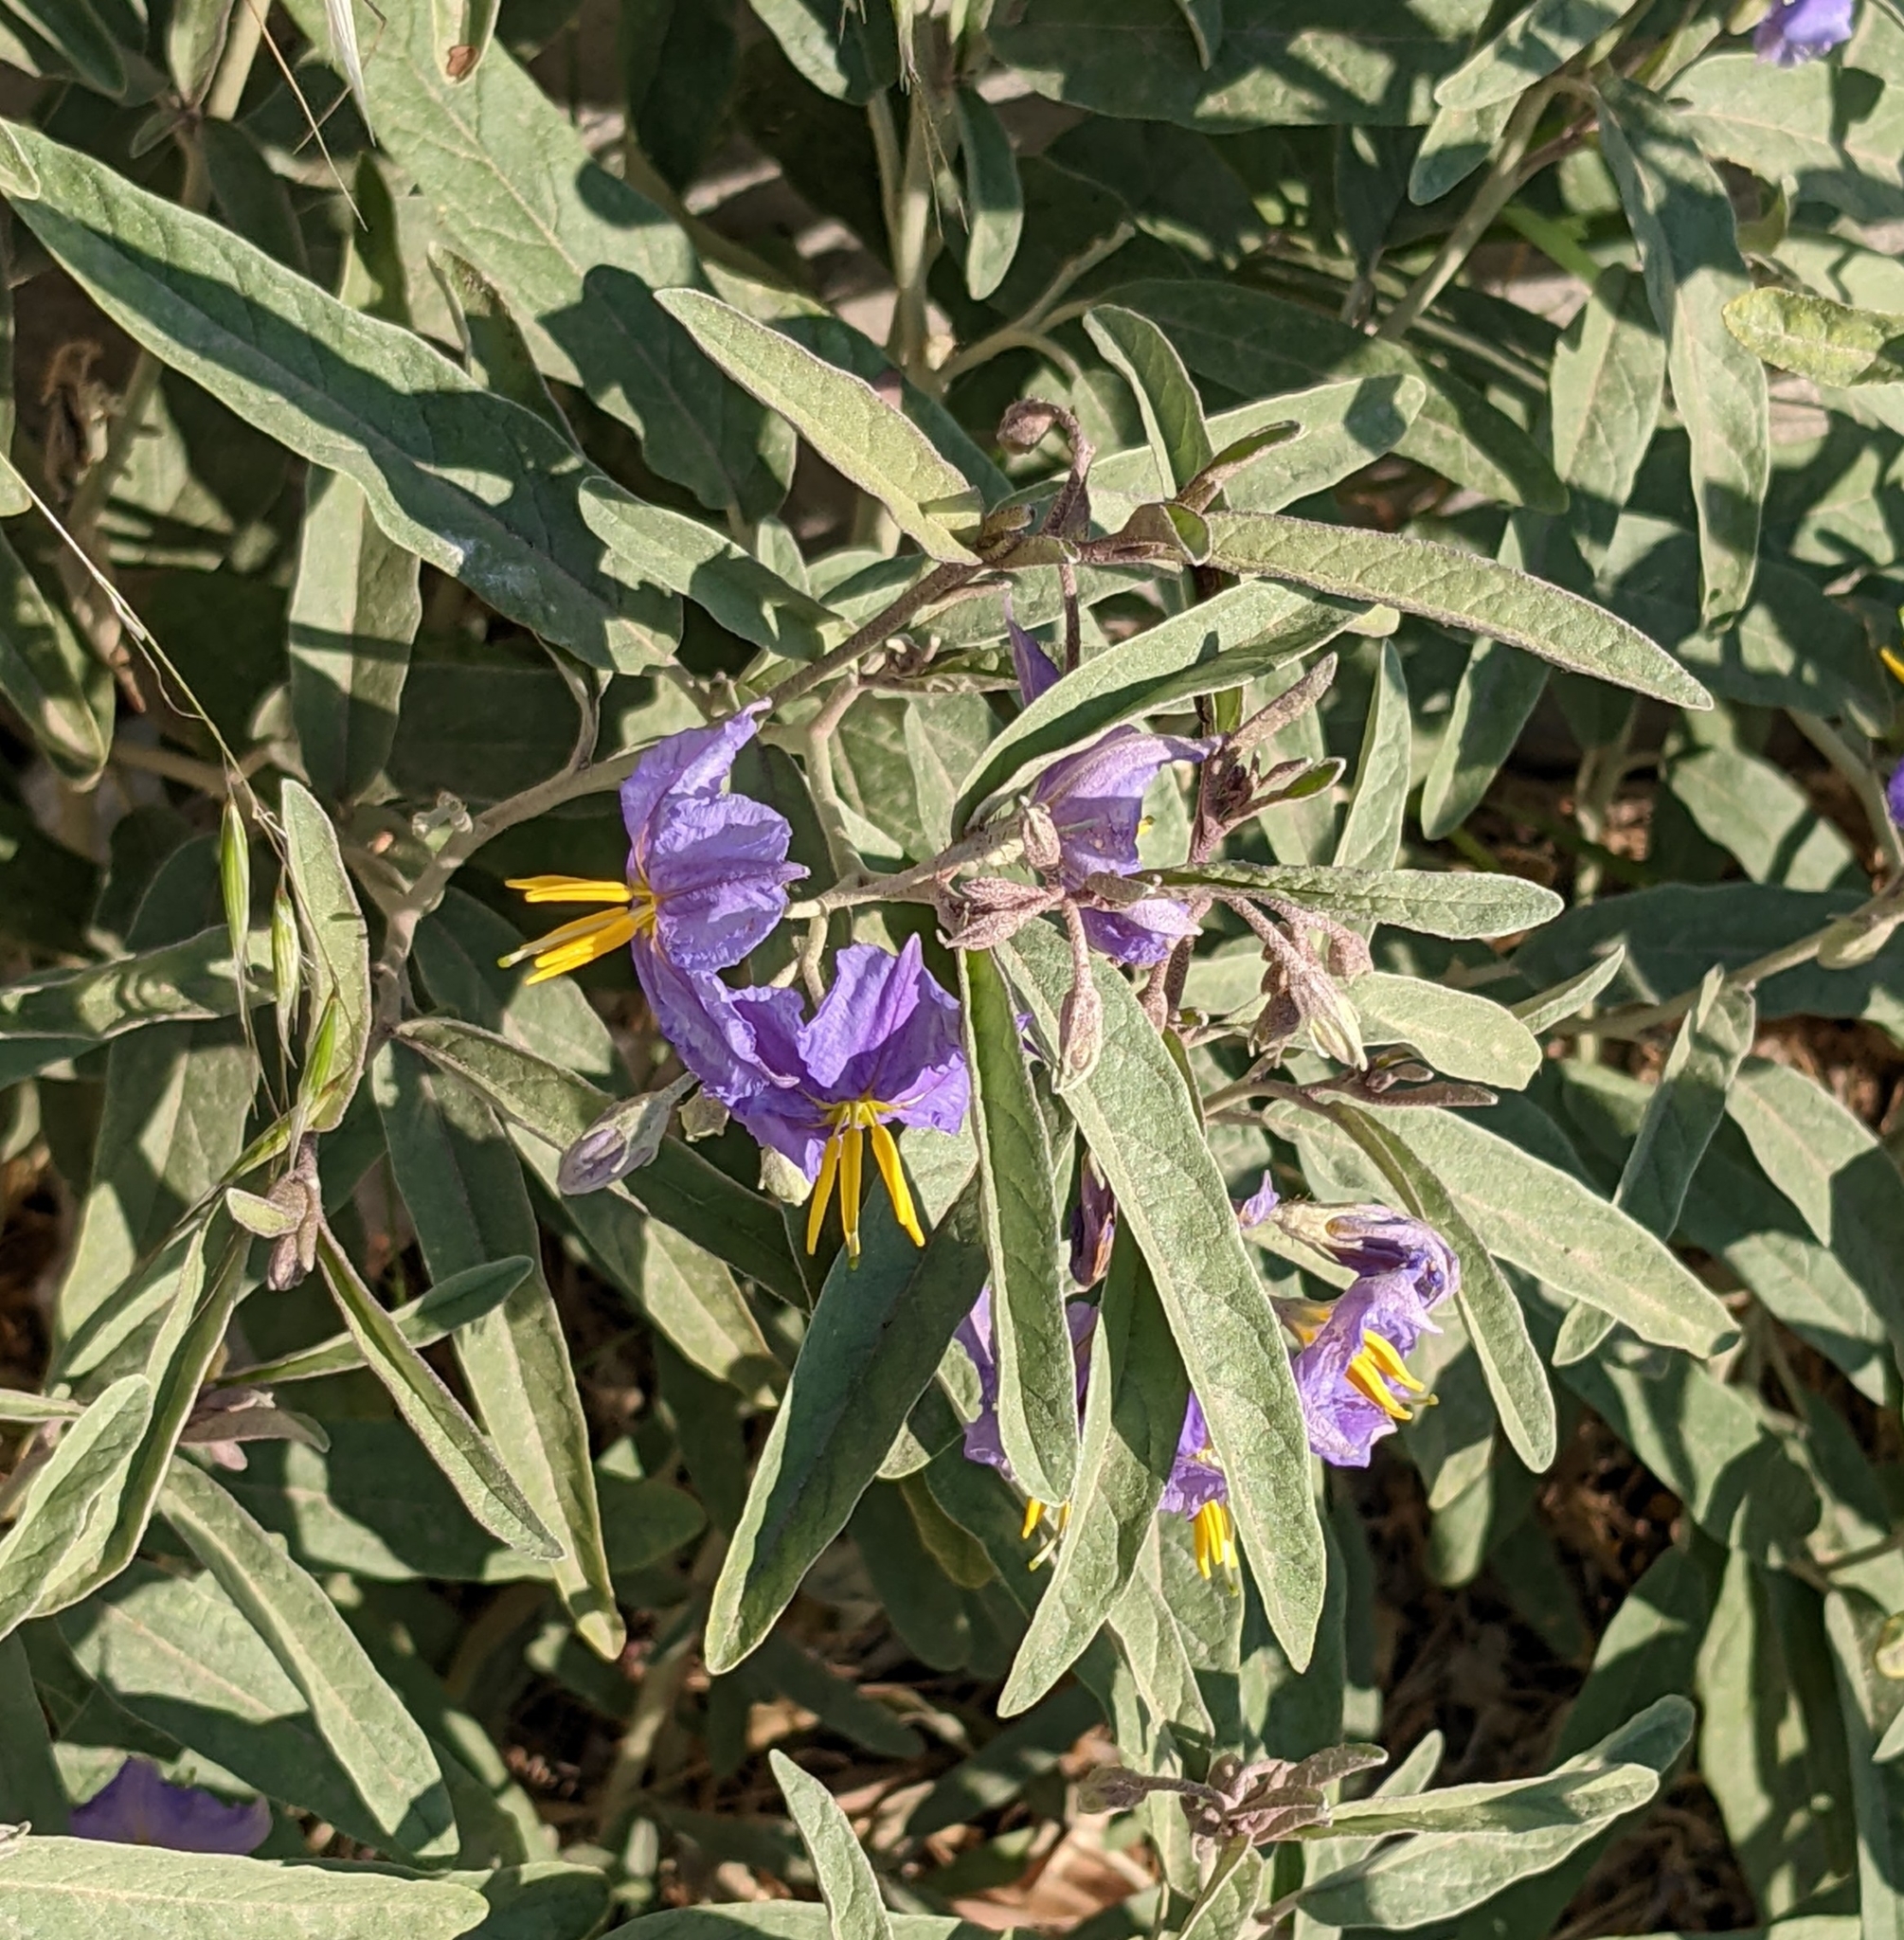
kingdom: Plantae
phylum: Tracheophyta
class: Magnoliopsida
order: Solanales
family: Solanaceae
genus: Solanum
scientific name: Solanum elaeagnifolium
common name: Silverleaf nightshade
